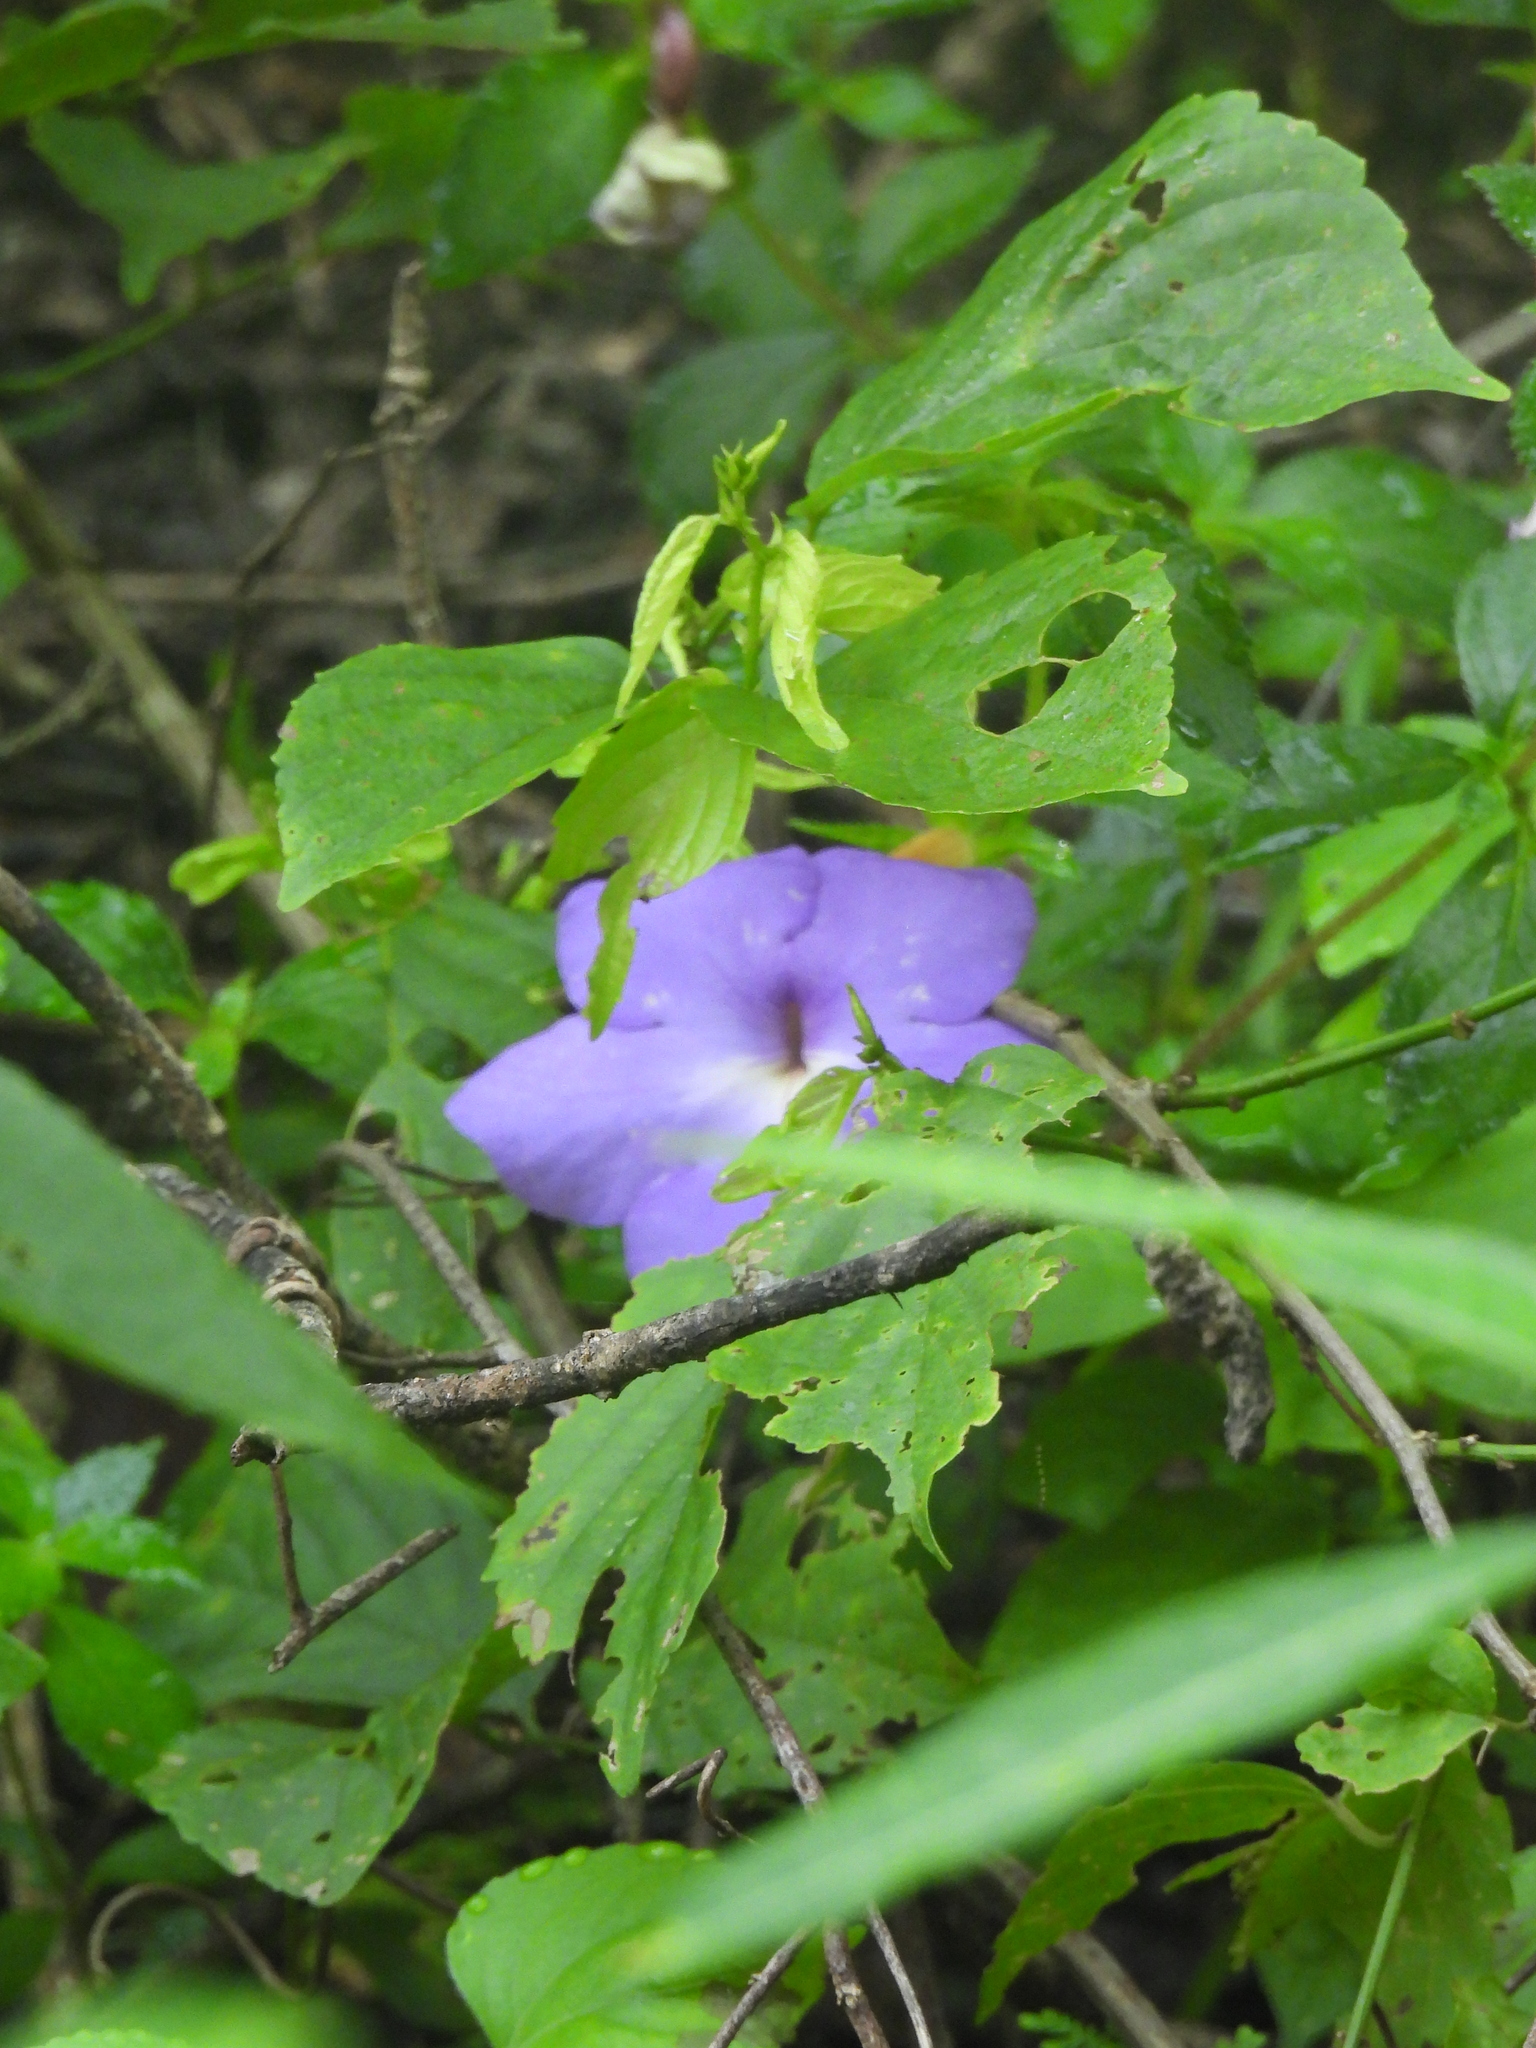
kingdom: Plantae
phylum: Tracheophyta
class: Magnoliopsida
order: Lamiales
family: Gesneriaceae
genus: Achimenes
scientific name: Achimenes longiflora
